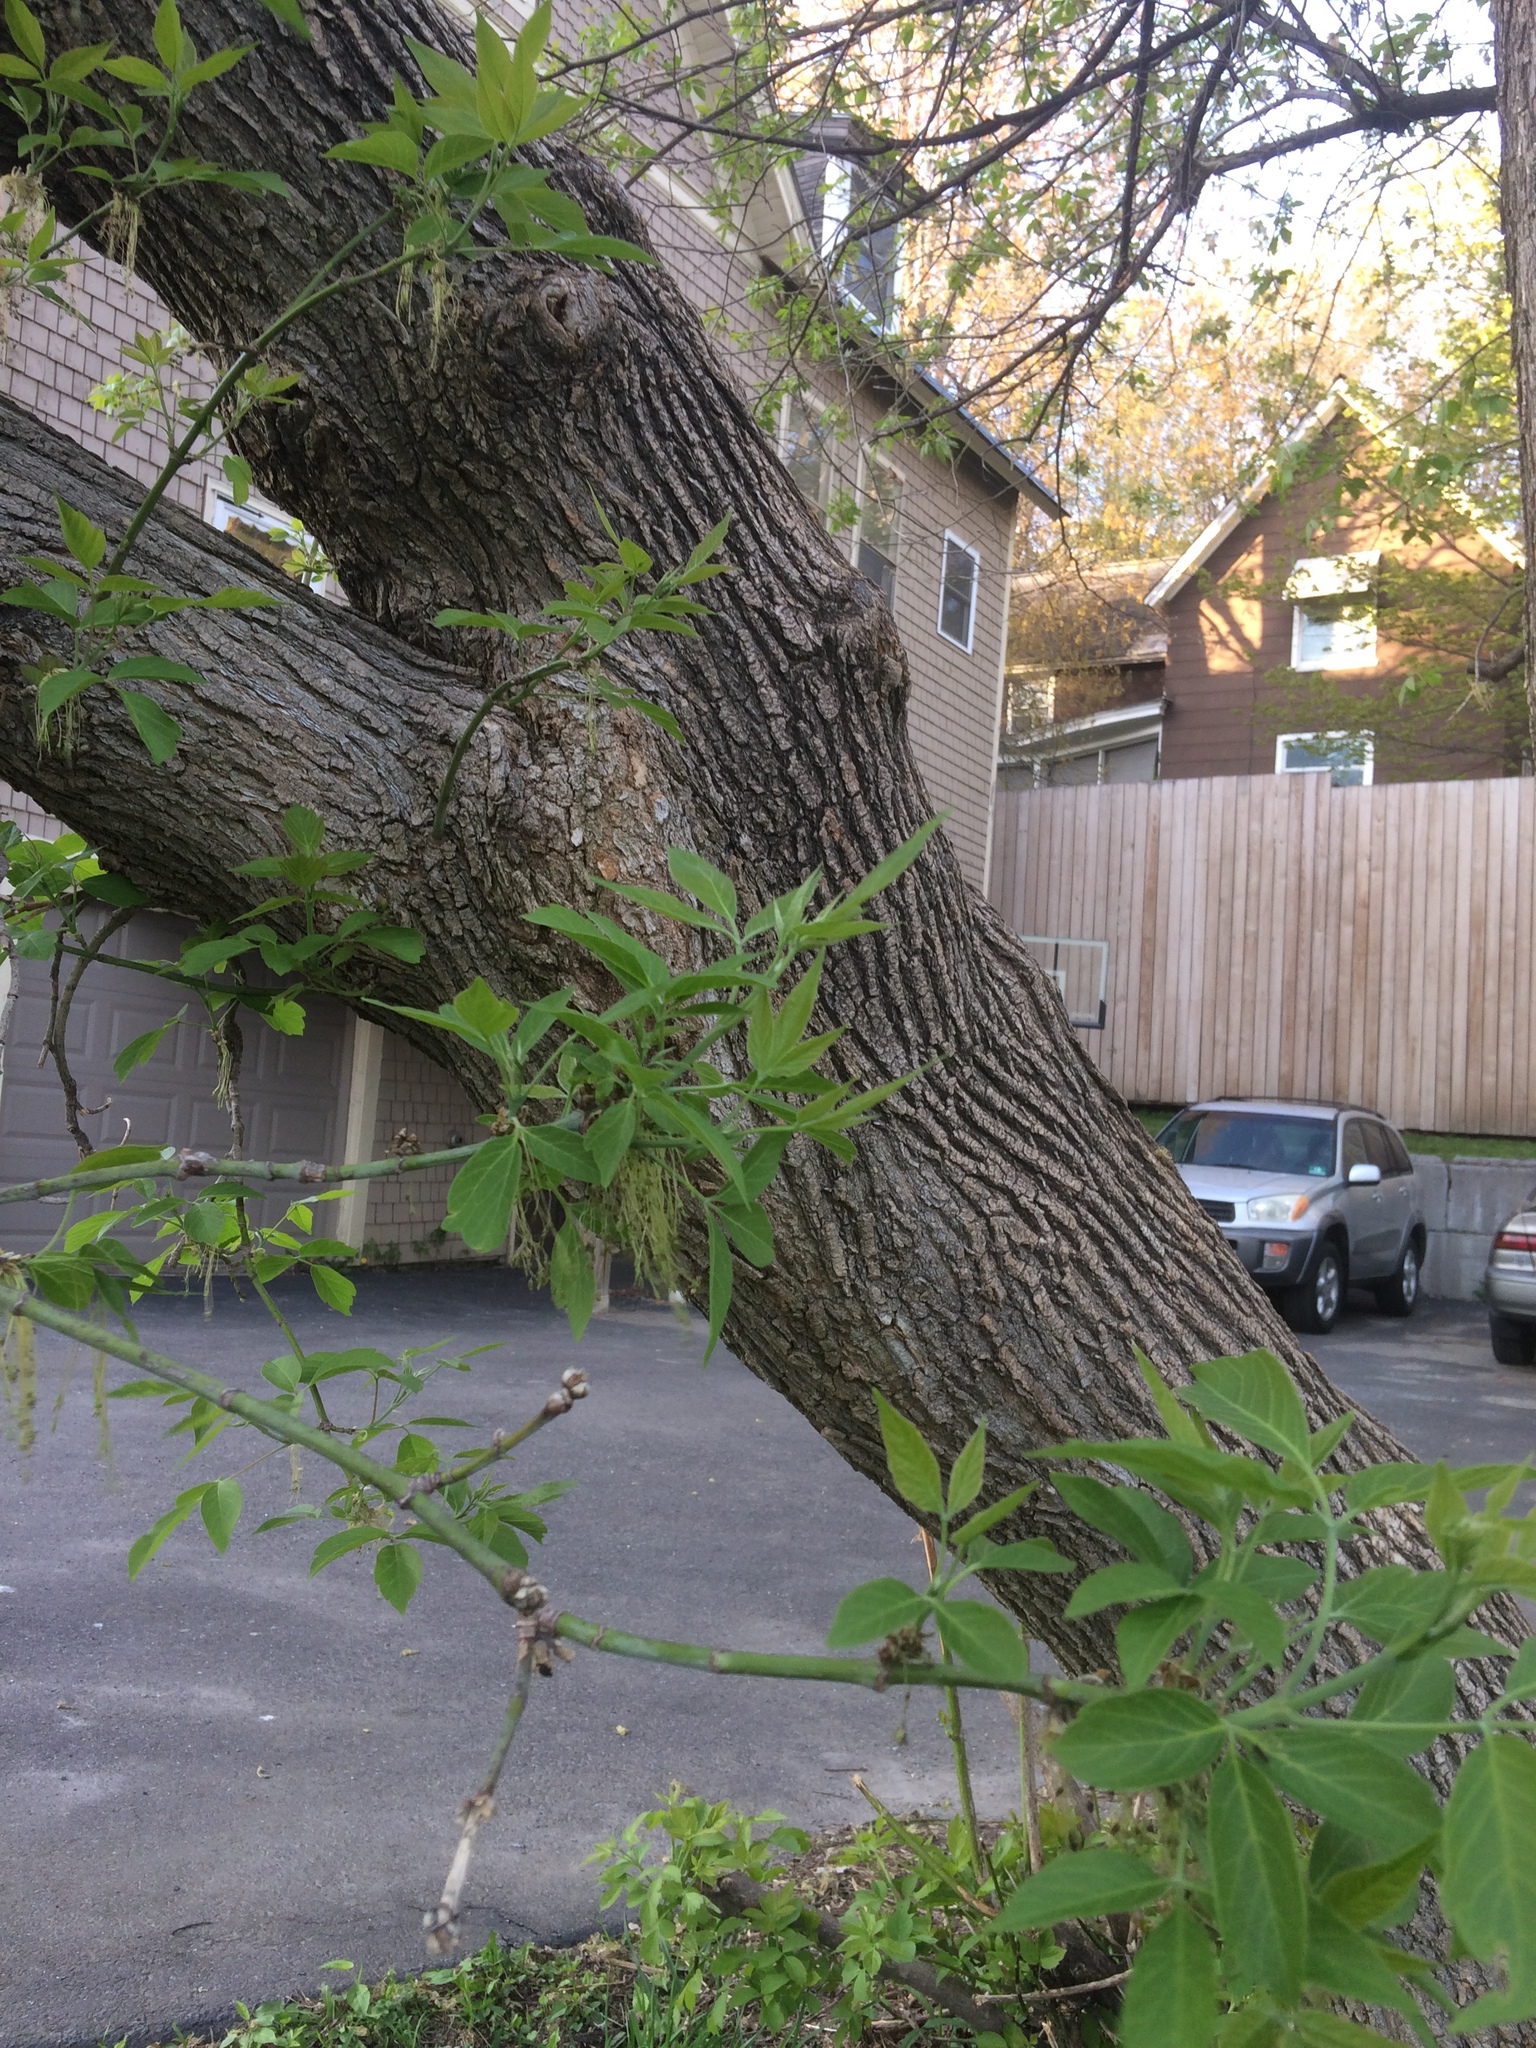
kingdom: Plantae
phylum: Tracheophyta
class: Magnoliopsida
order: Sapindales
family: Sapindaceae
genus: Acer
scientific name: Acer negundo
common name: Ashleaf maple
